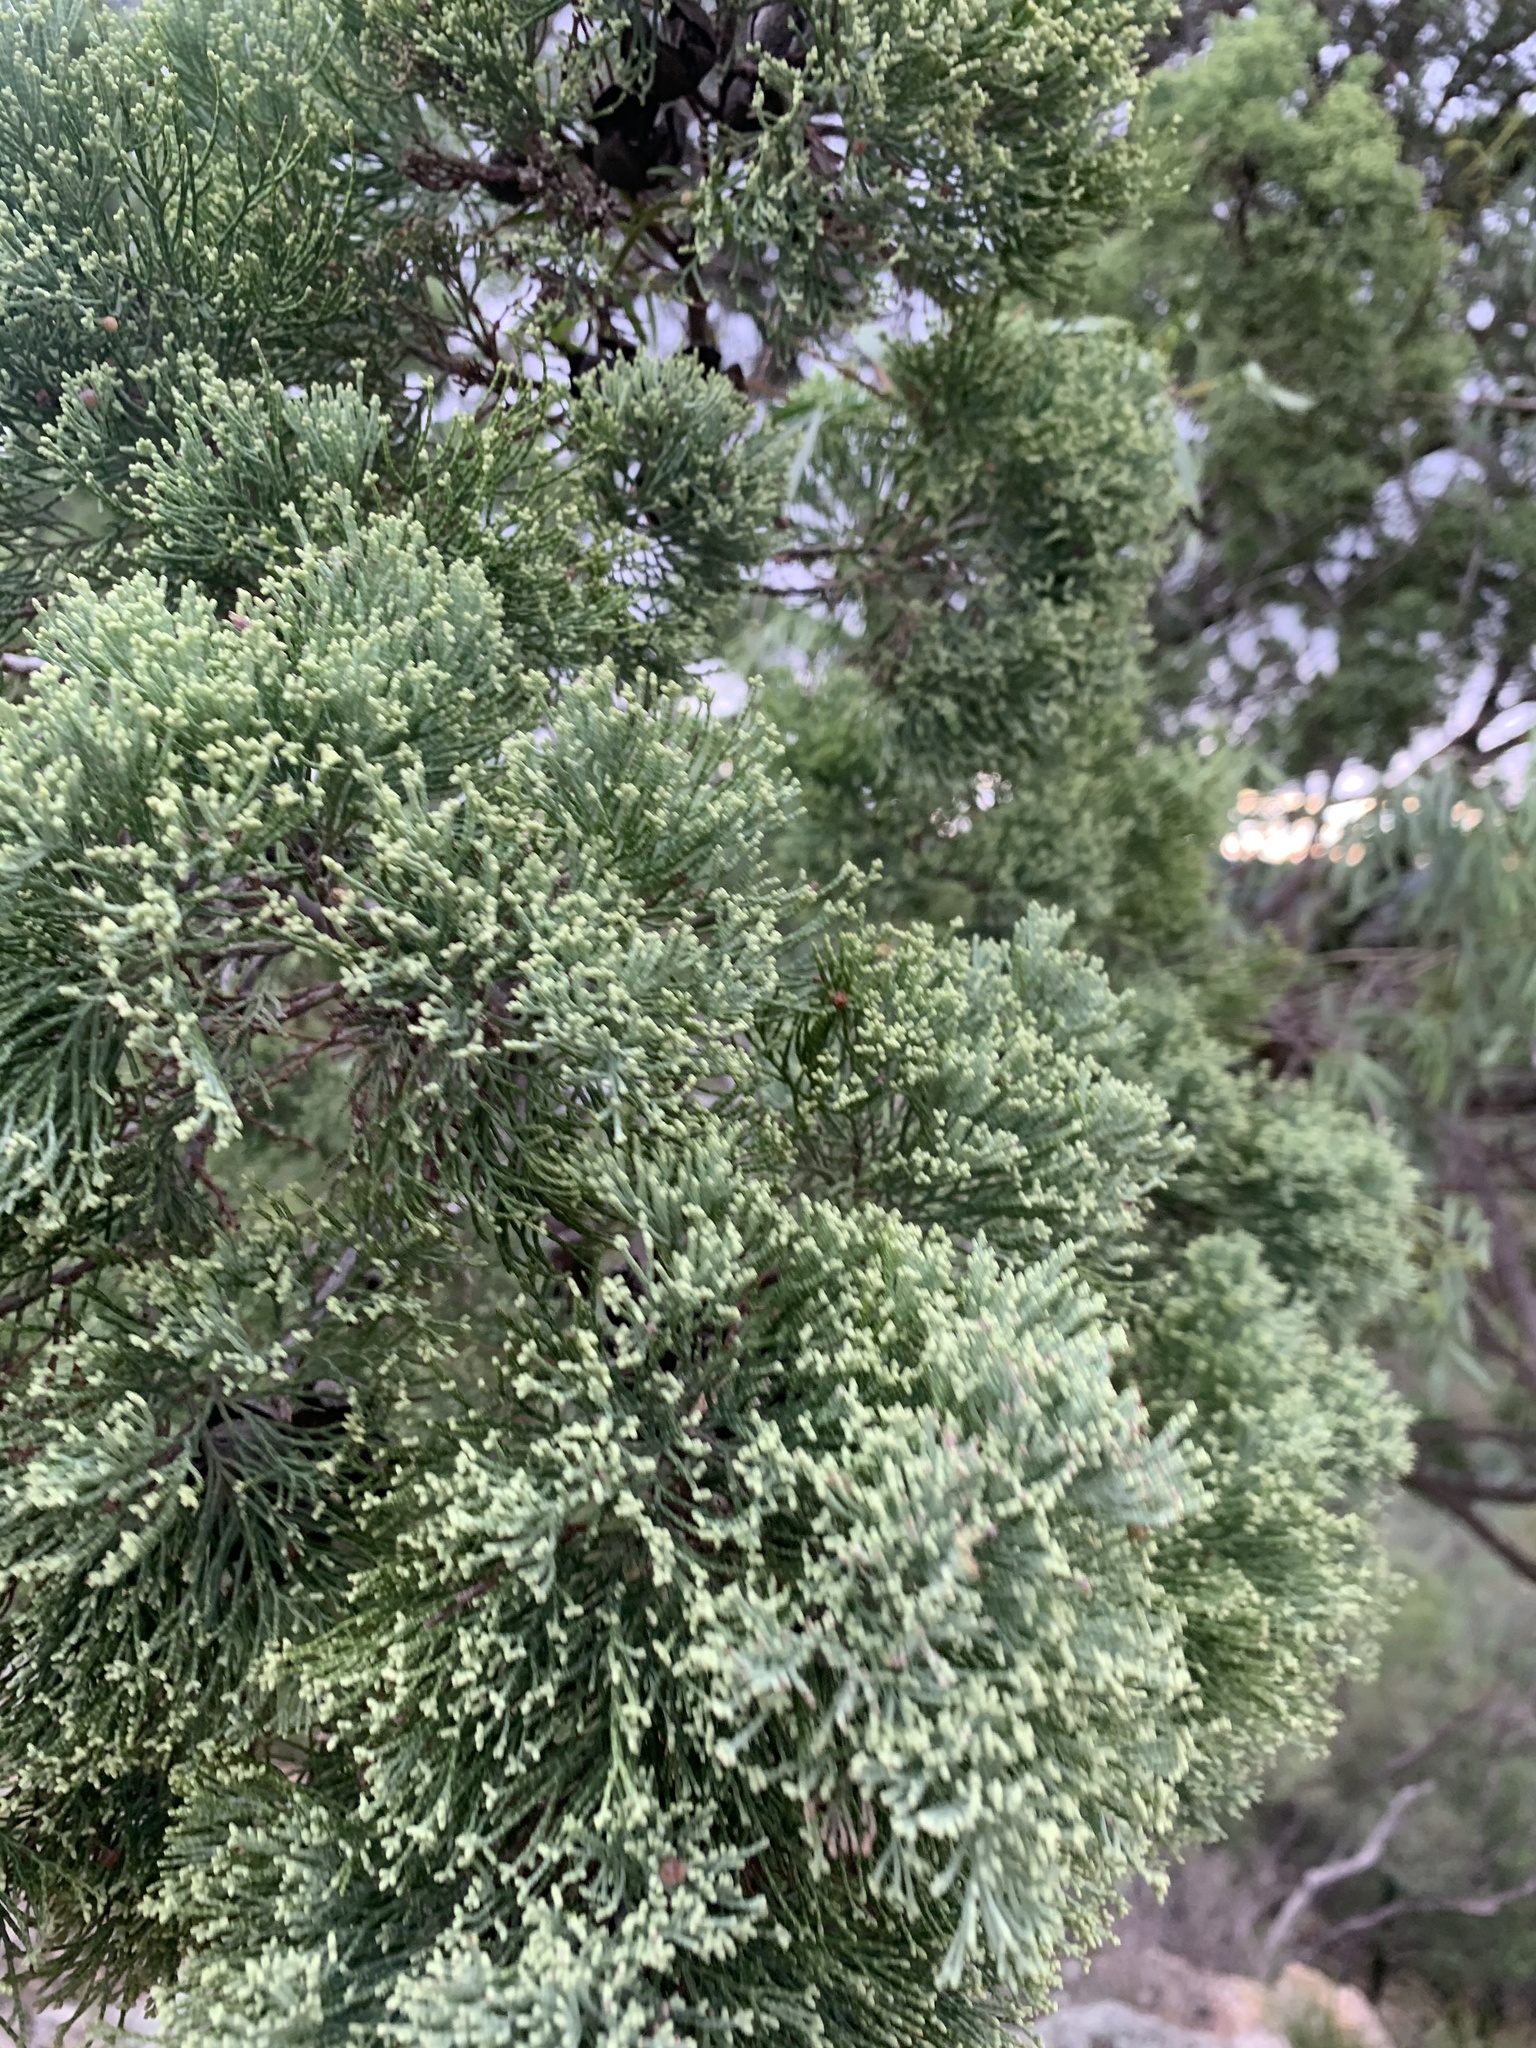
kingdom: Plantae
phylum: Tracheophyta
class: Pinopsida
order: Pinales
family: Cupressaceae
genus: Callitris
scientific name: Callitris columellaris
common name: White cypress-pine
